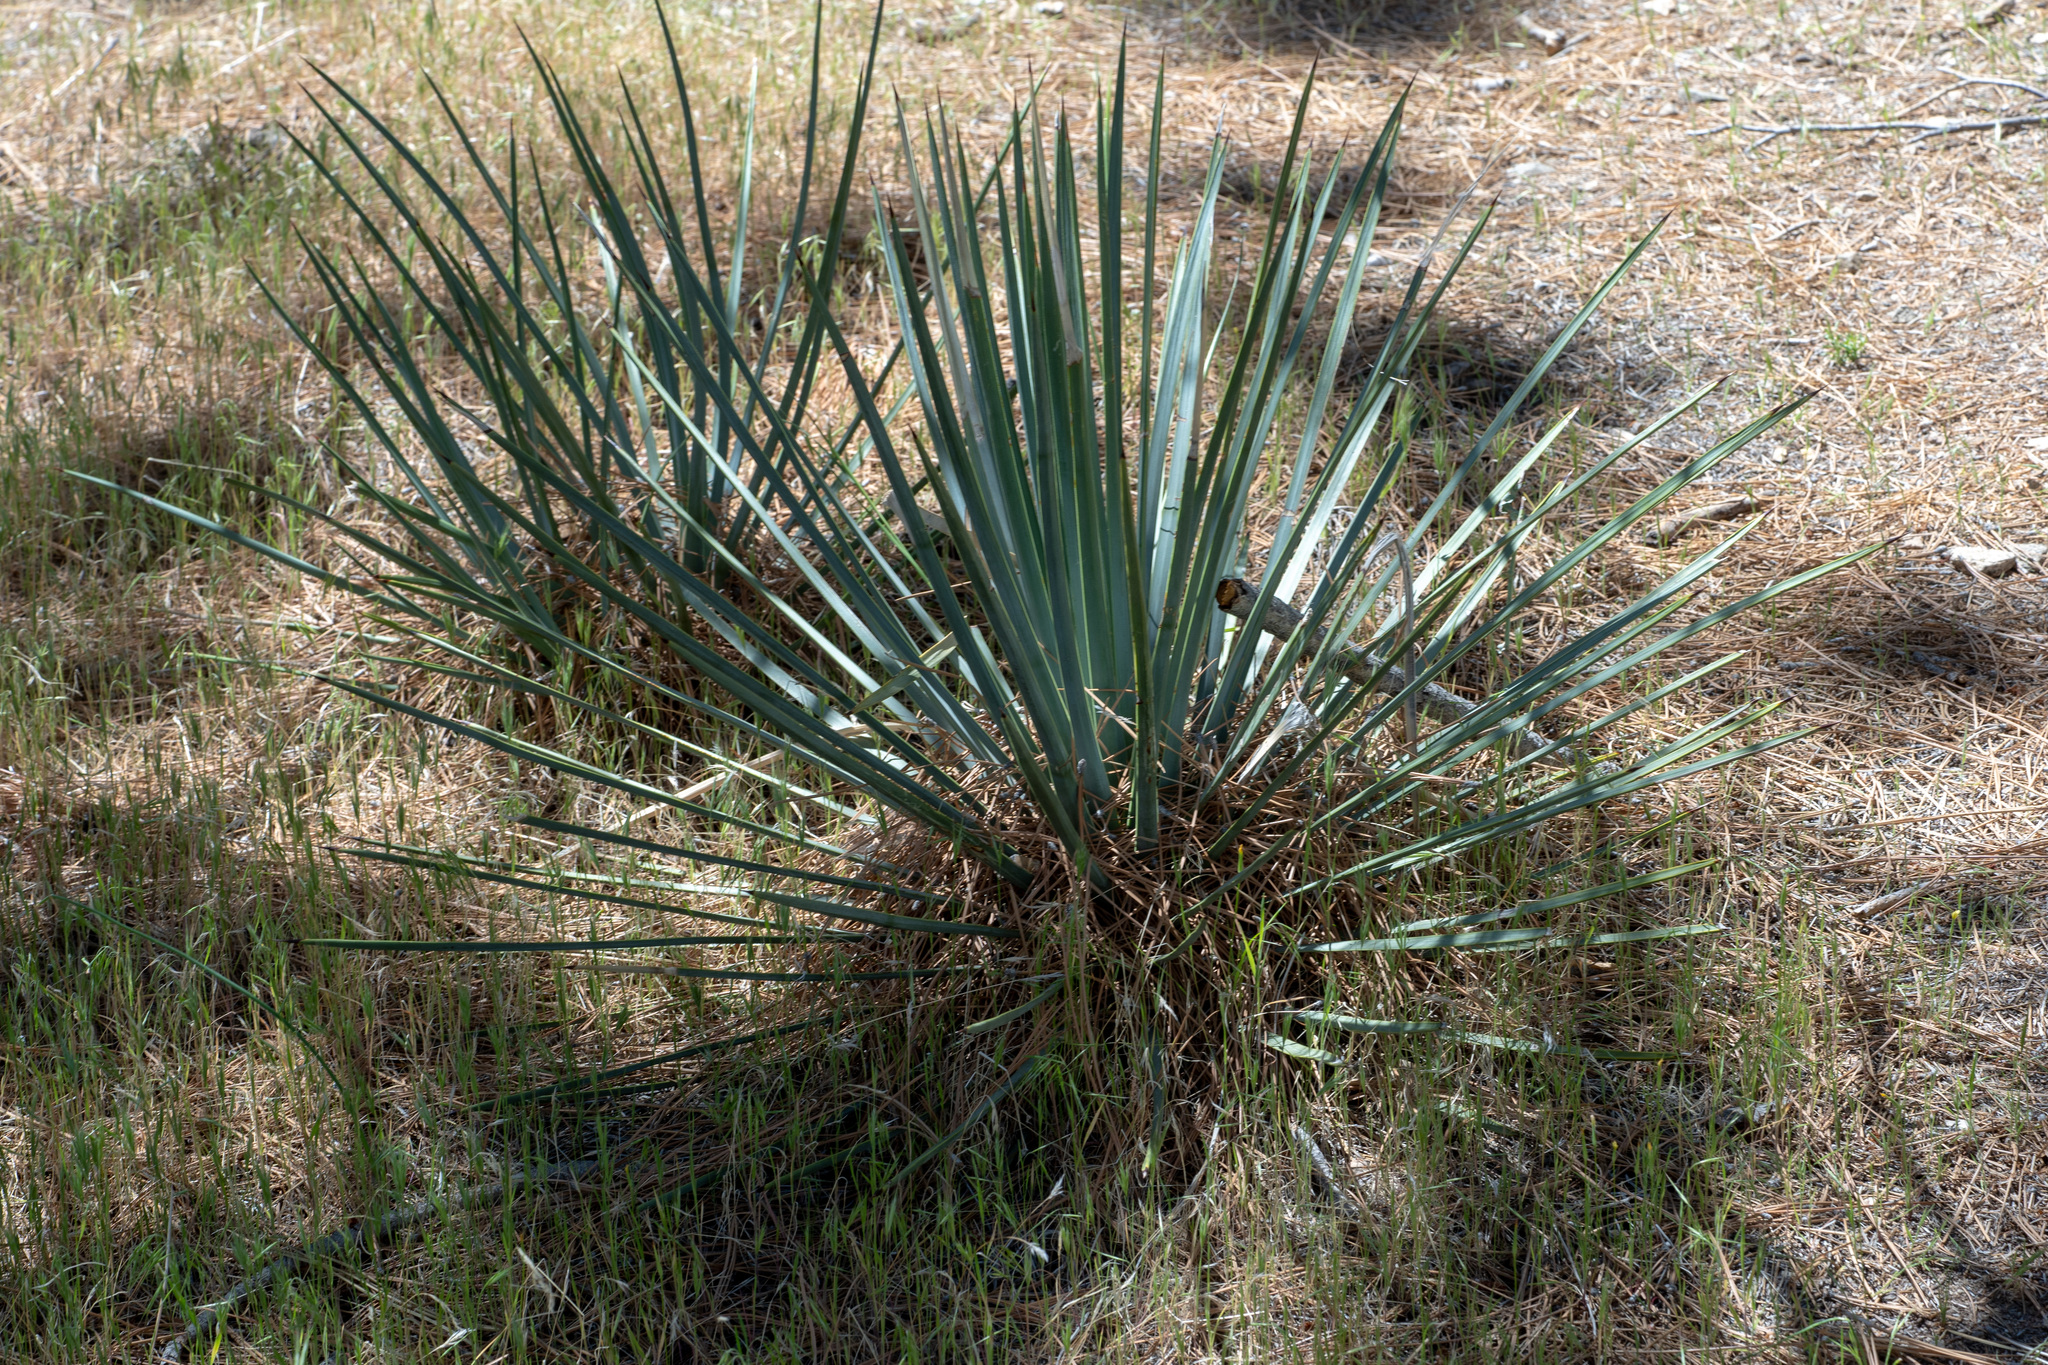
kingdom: Plantae
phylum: Tracheophyta
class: Liliopsida
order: Asparagales
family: Asparagaceae
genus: Hesperoyucca
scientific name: Hesperoyucca whipplei
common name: Our lord's-candle
